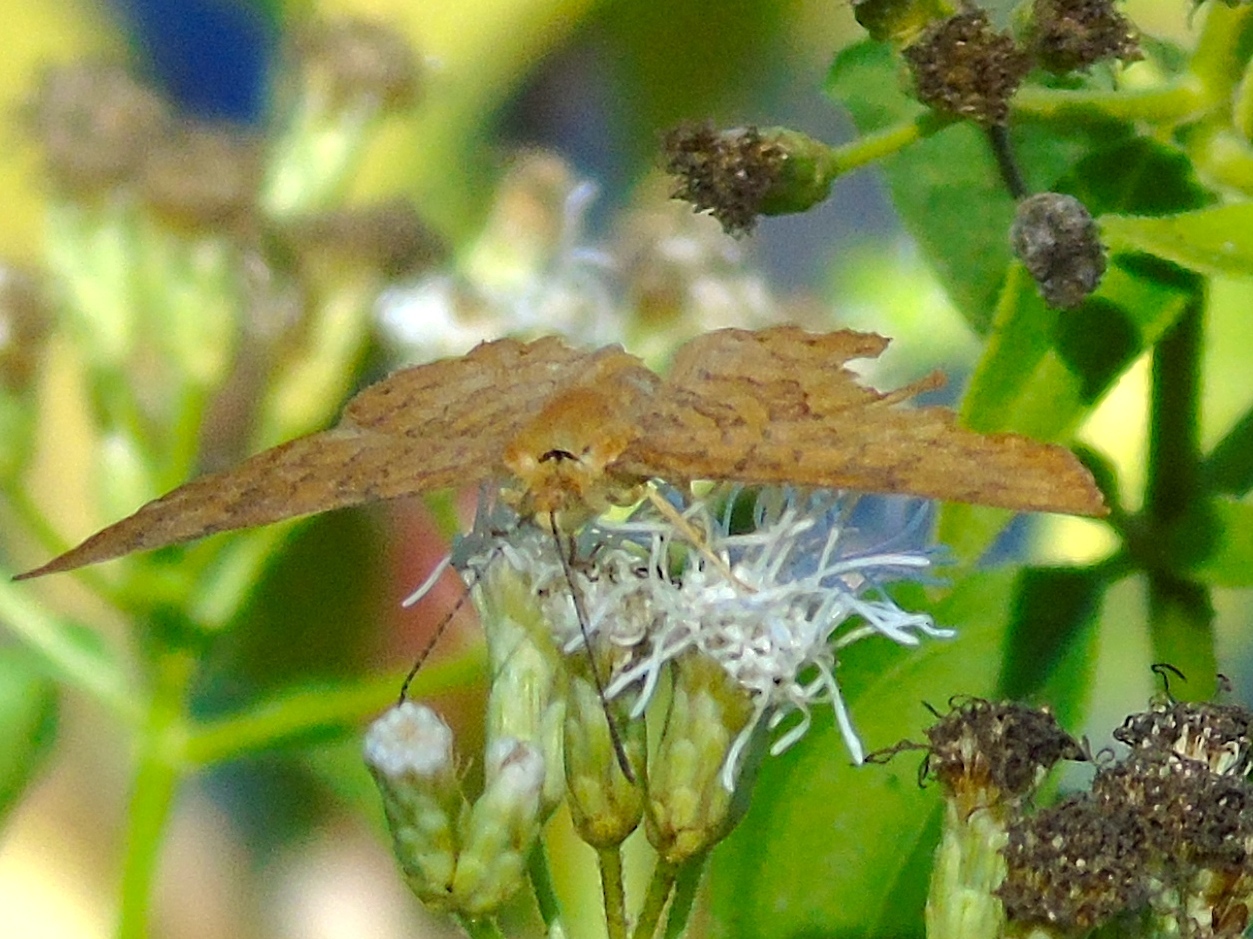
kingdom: Animalia
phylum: Arthropoda
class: Insecta
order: Lepidoptera
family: Lycaenidae
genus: Emesis
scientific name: Emesis tenedia
